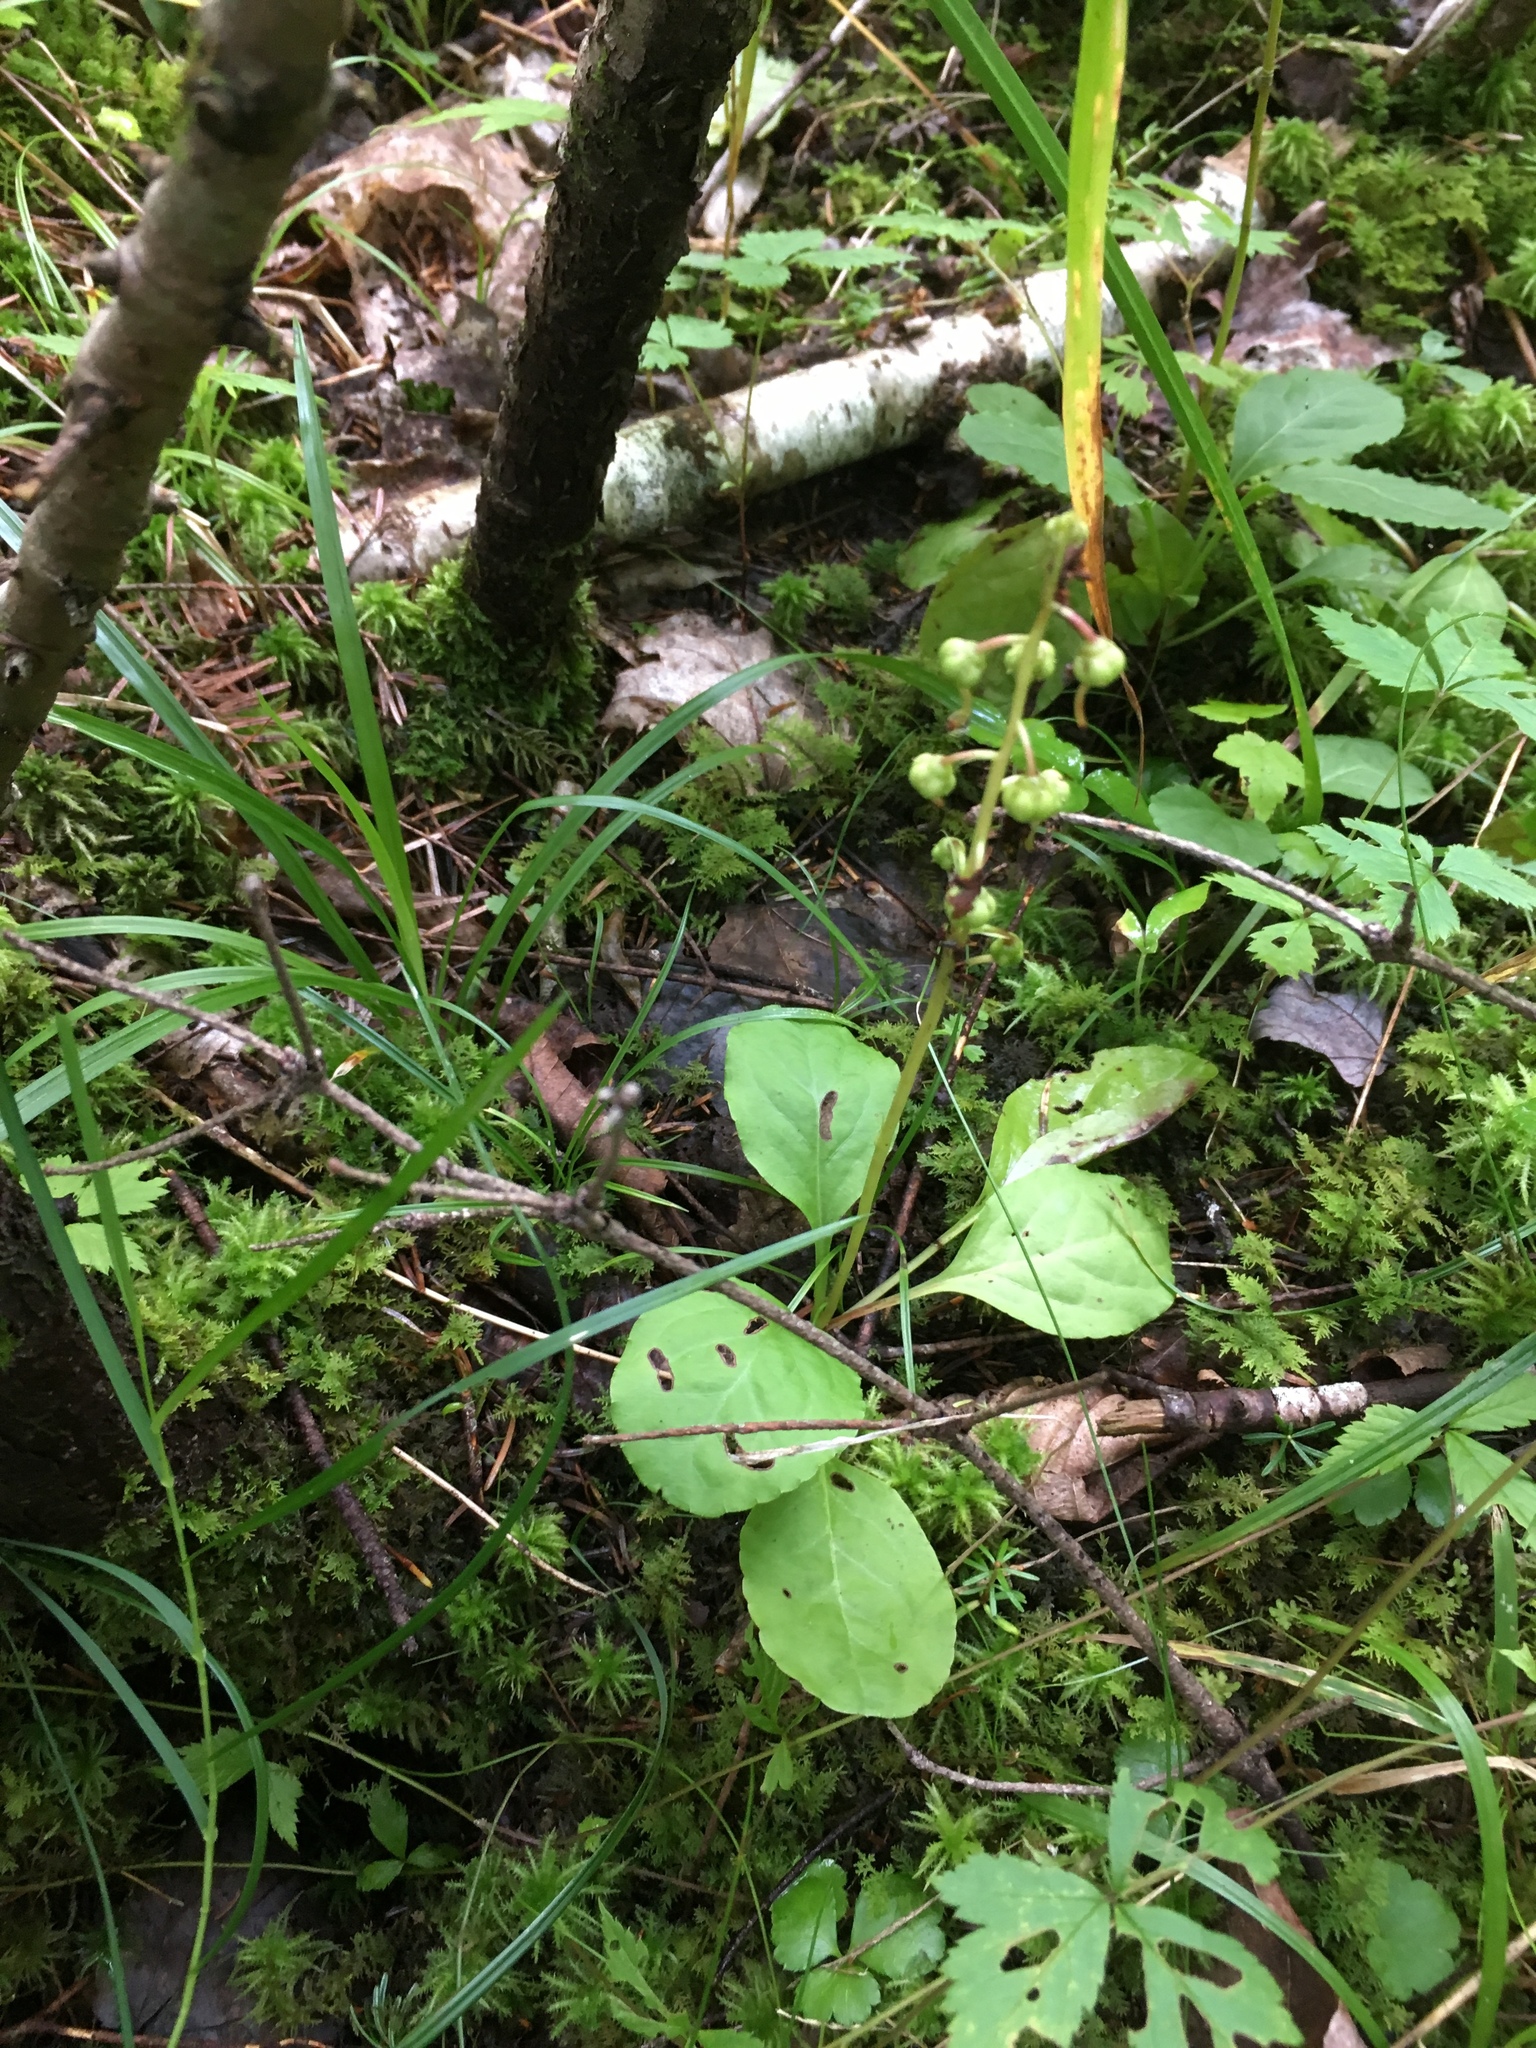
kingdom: Plantae
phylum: Tracheophyta
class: Magnoliopsida
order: Ericales
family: Ericaceae
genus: Pyrola
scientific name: Pyrola elliptica
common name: Shinleaf
